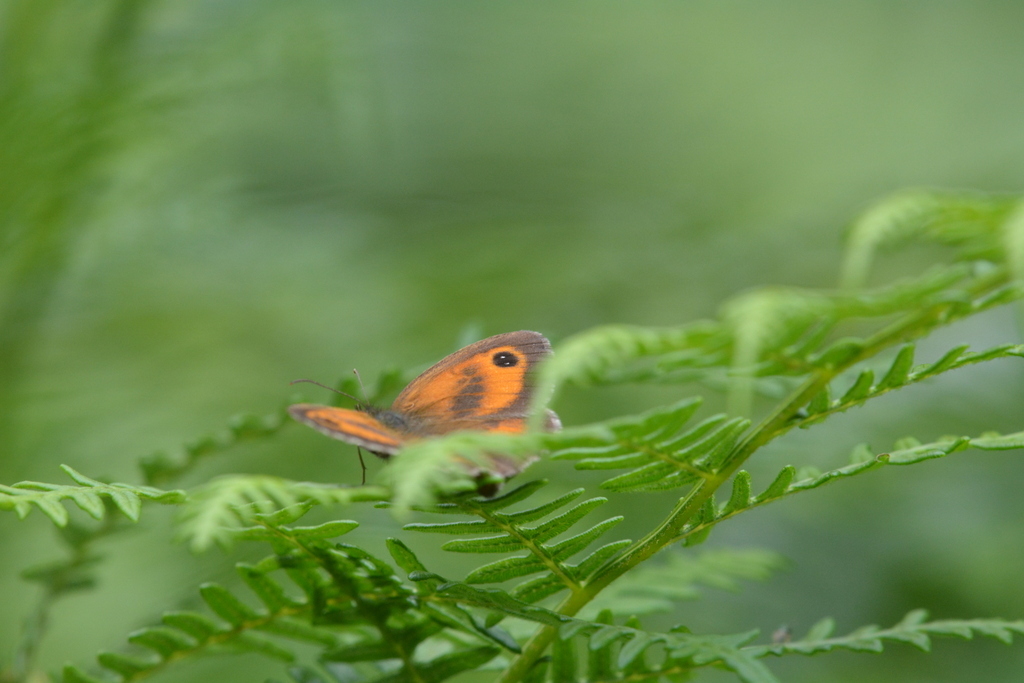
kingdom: Animalia
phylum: Arthropoda
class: Insecta
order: Lepidoptera
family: Nymphalidae
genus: Pyronia
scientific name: Pyronia tithonus
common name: Gatekeeper
